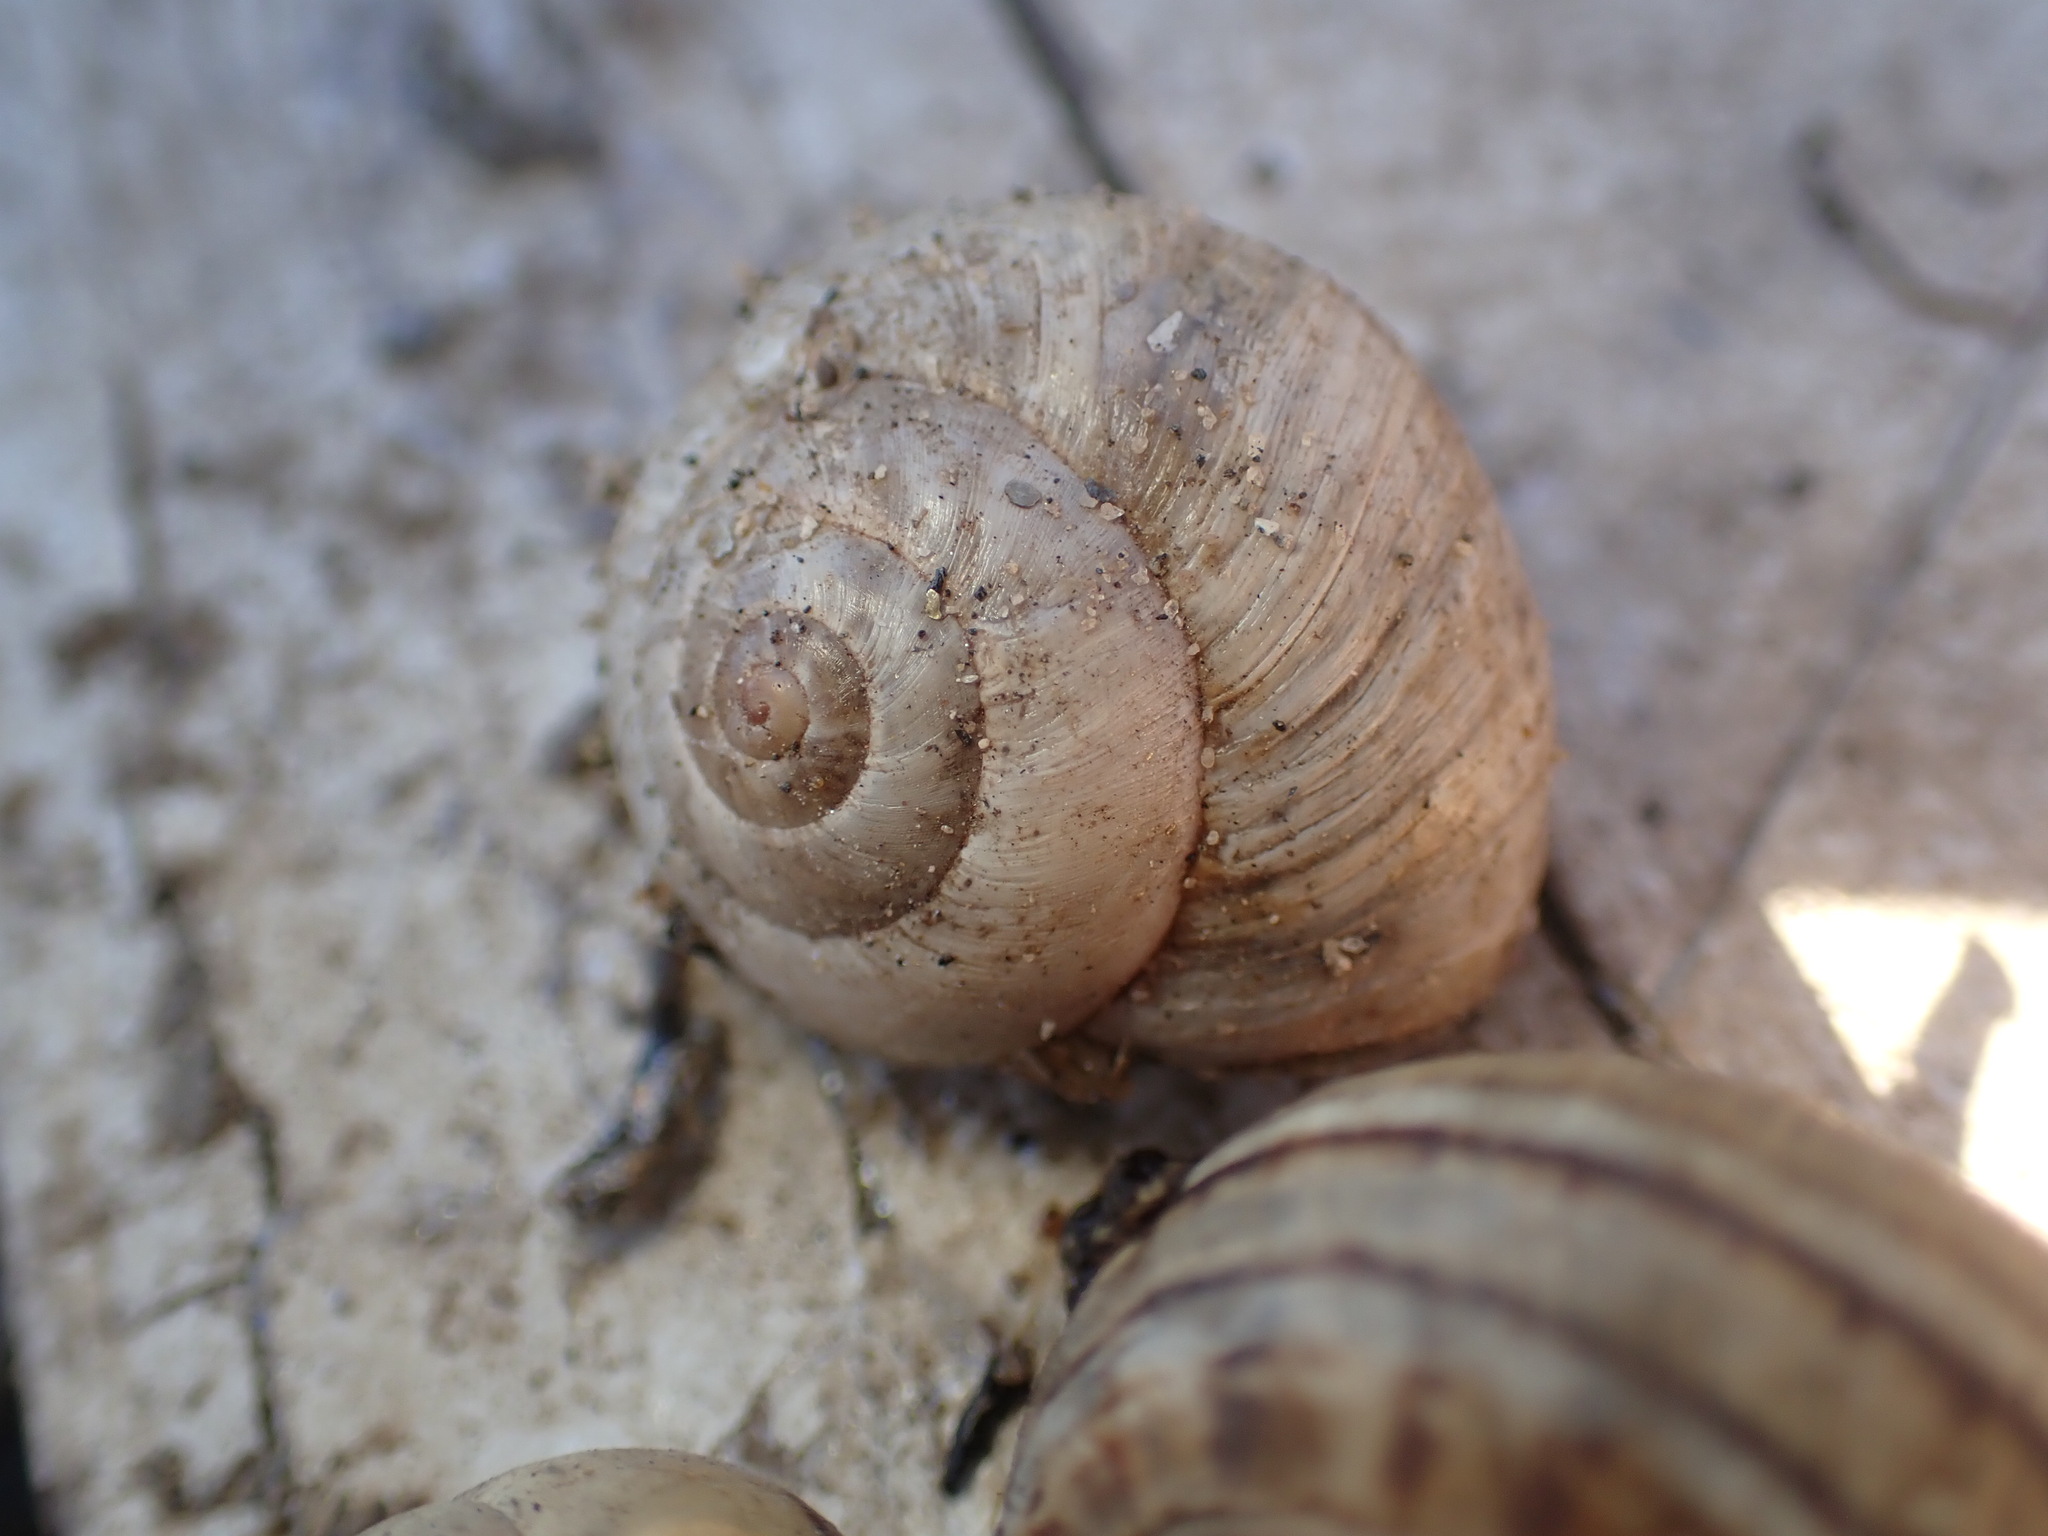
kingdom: Animalia
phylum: Mollusca
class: Gastropoda
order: Stylommatophora
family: Helicidae
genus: Theba
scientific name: Theba pisana
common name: White snail
